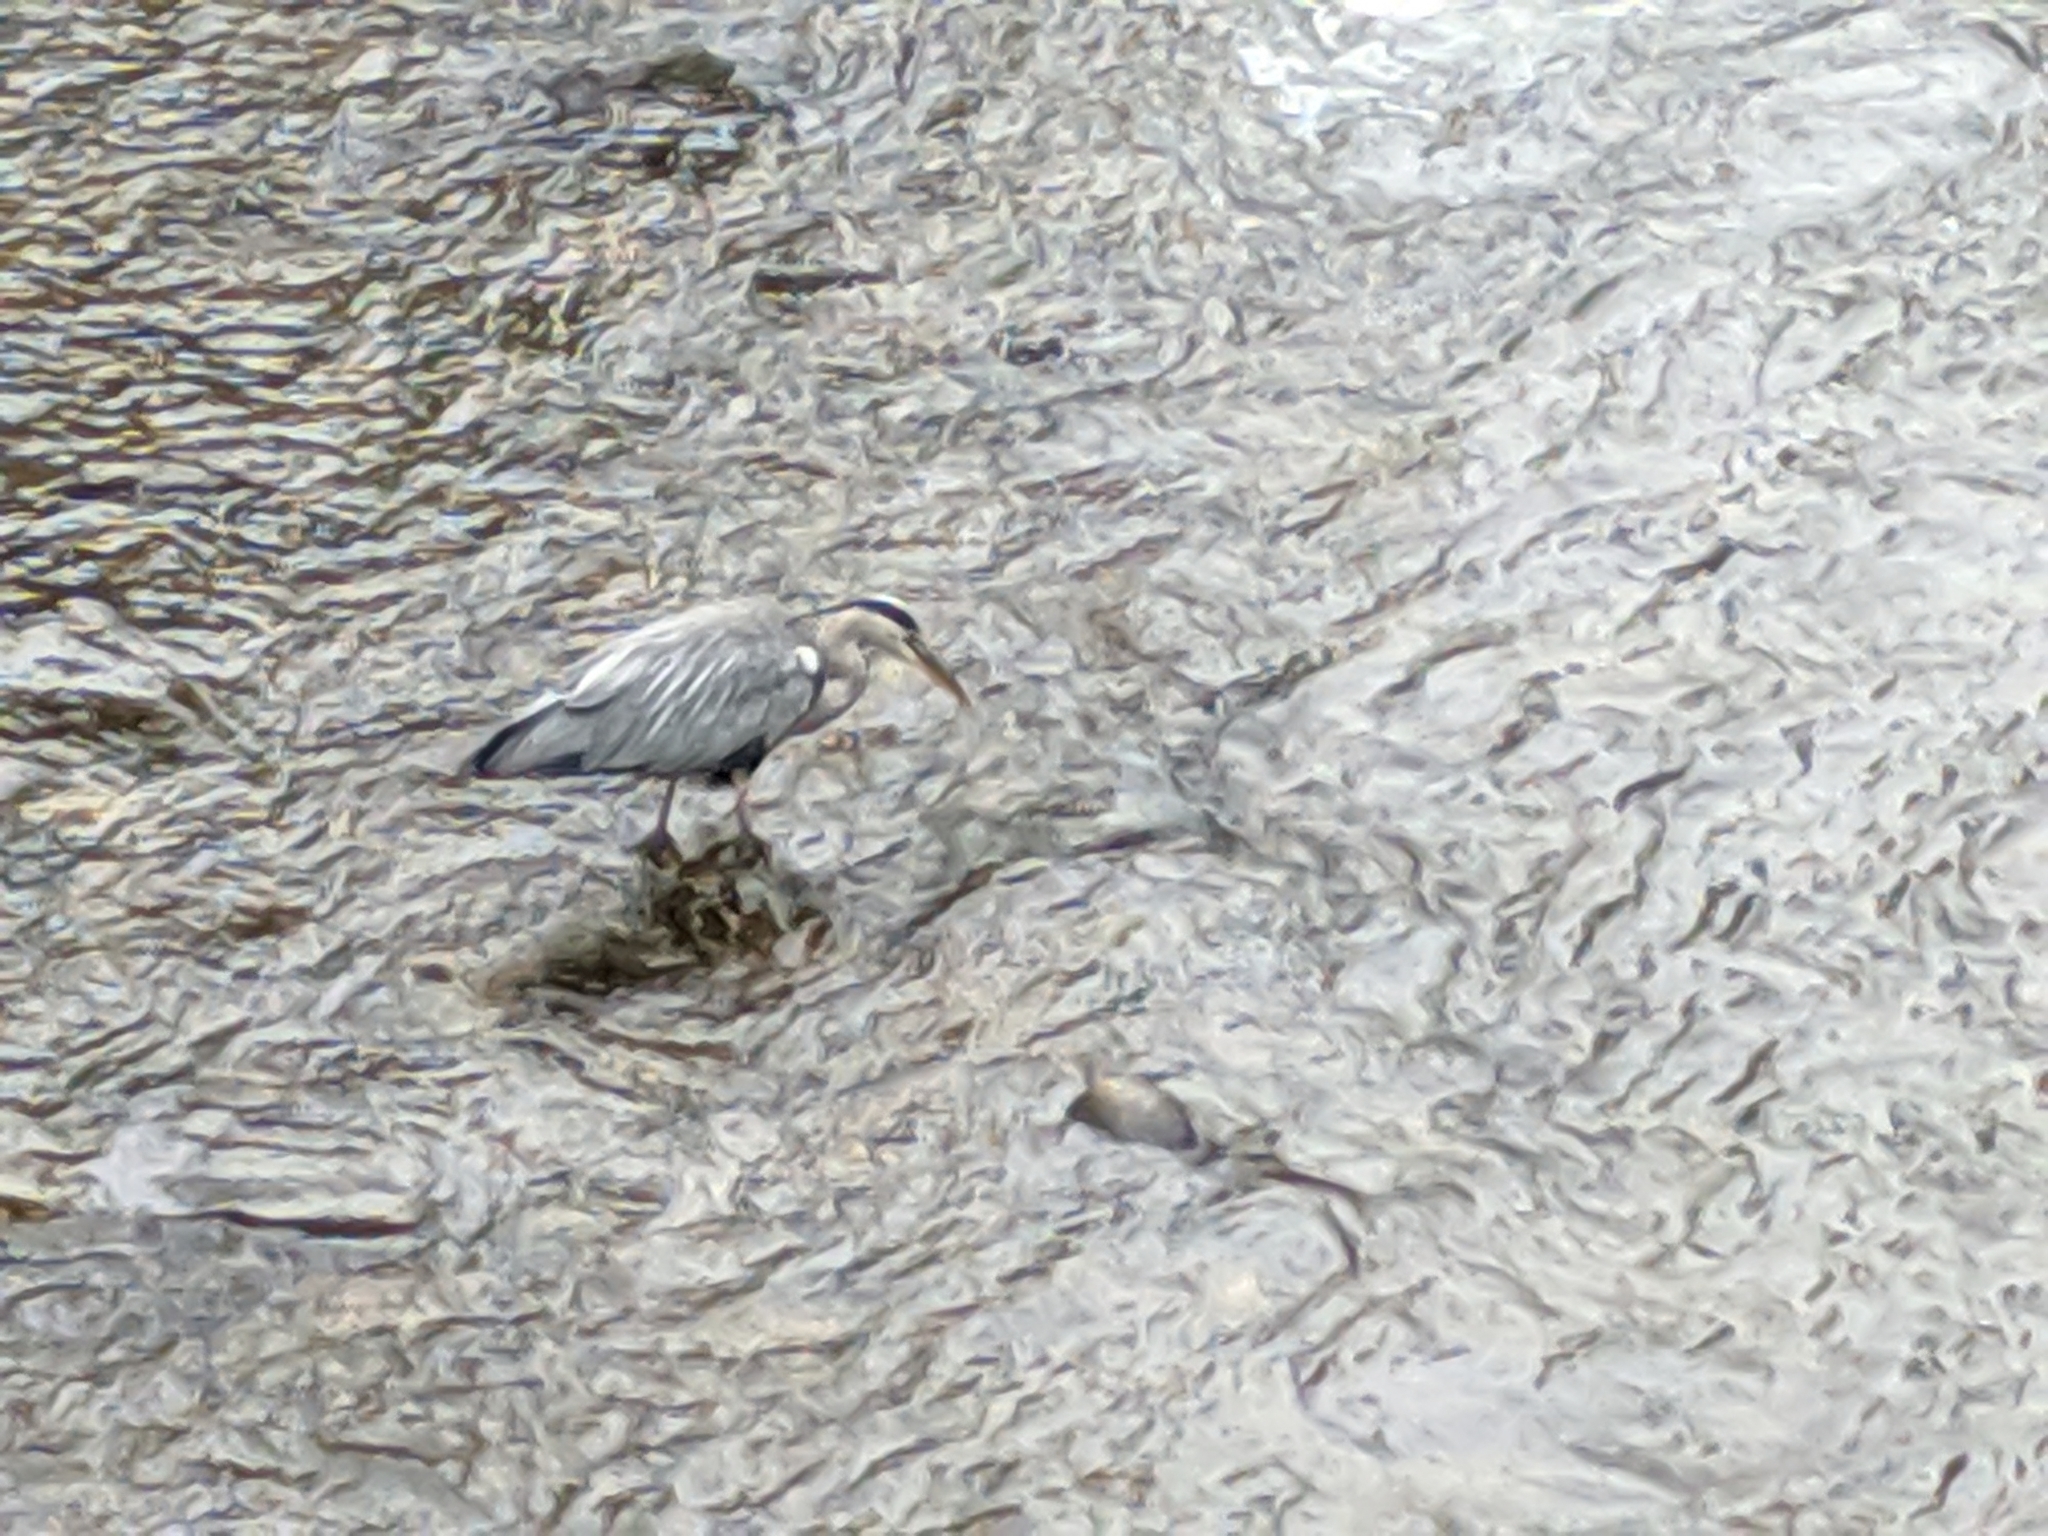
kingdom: Animalia
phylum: Chordata
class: Aves
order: Pelecaniformes
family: Ardeidae
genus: Ardea
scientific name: Ardea cinerea
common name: Grey heron
